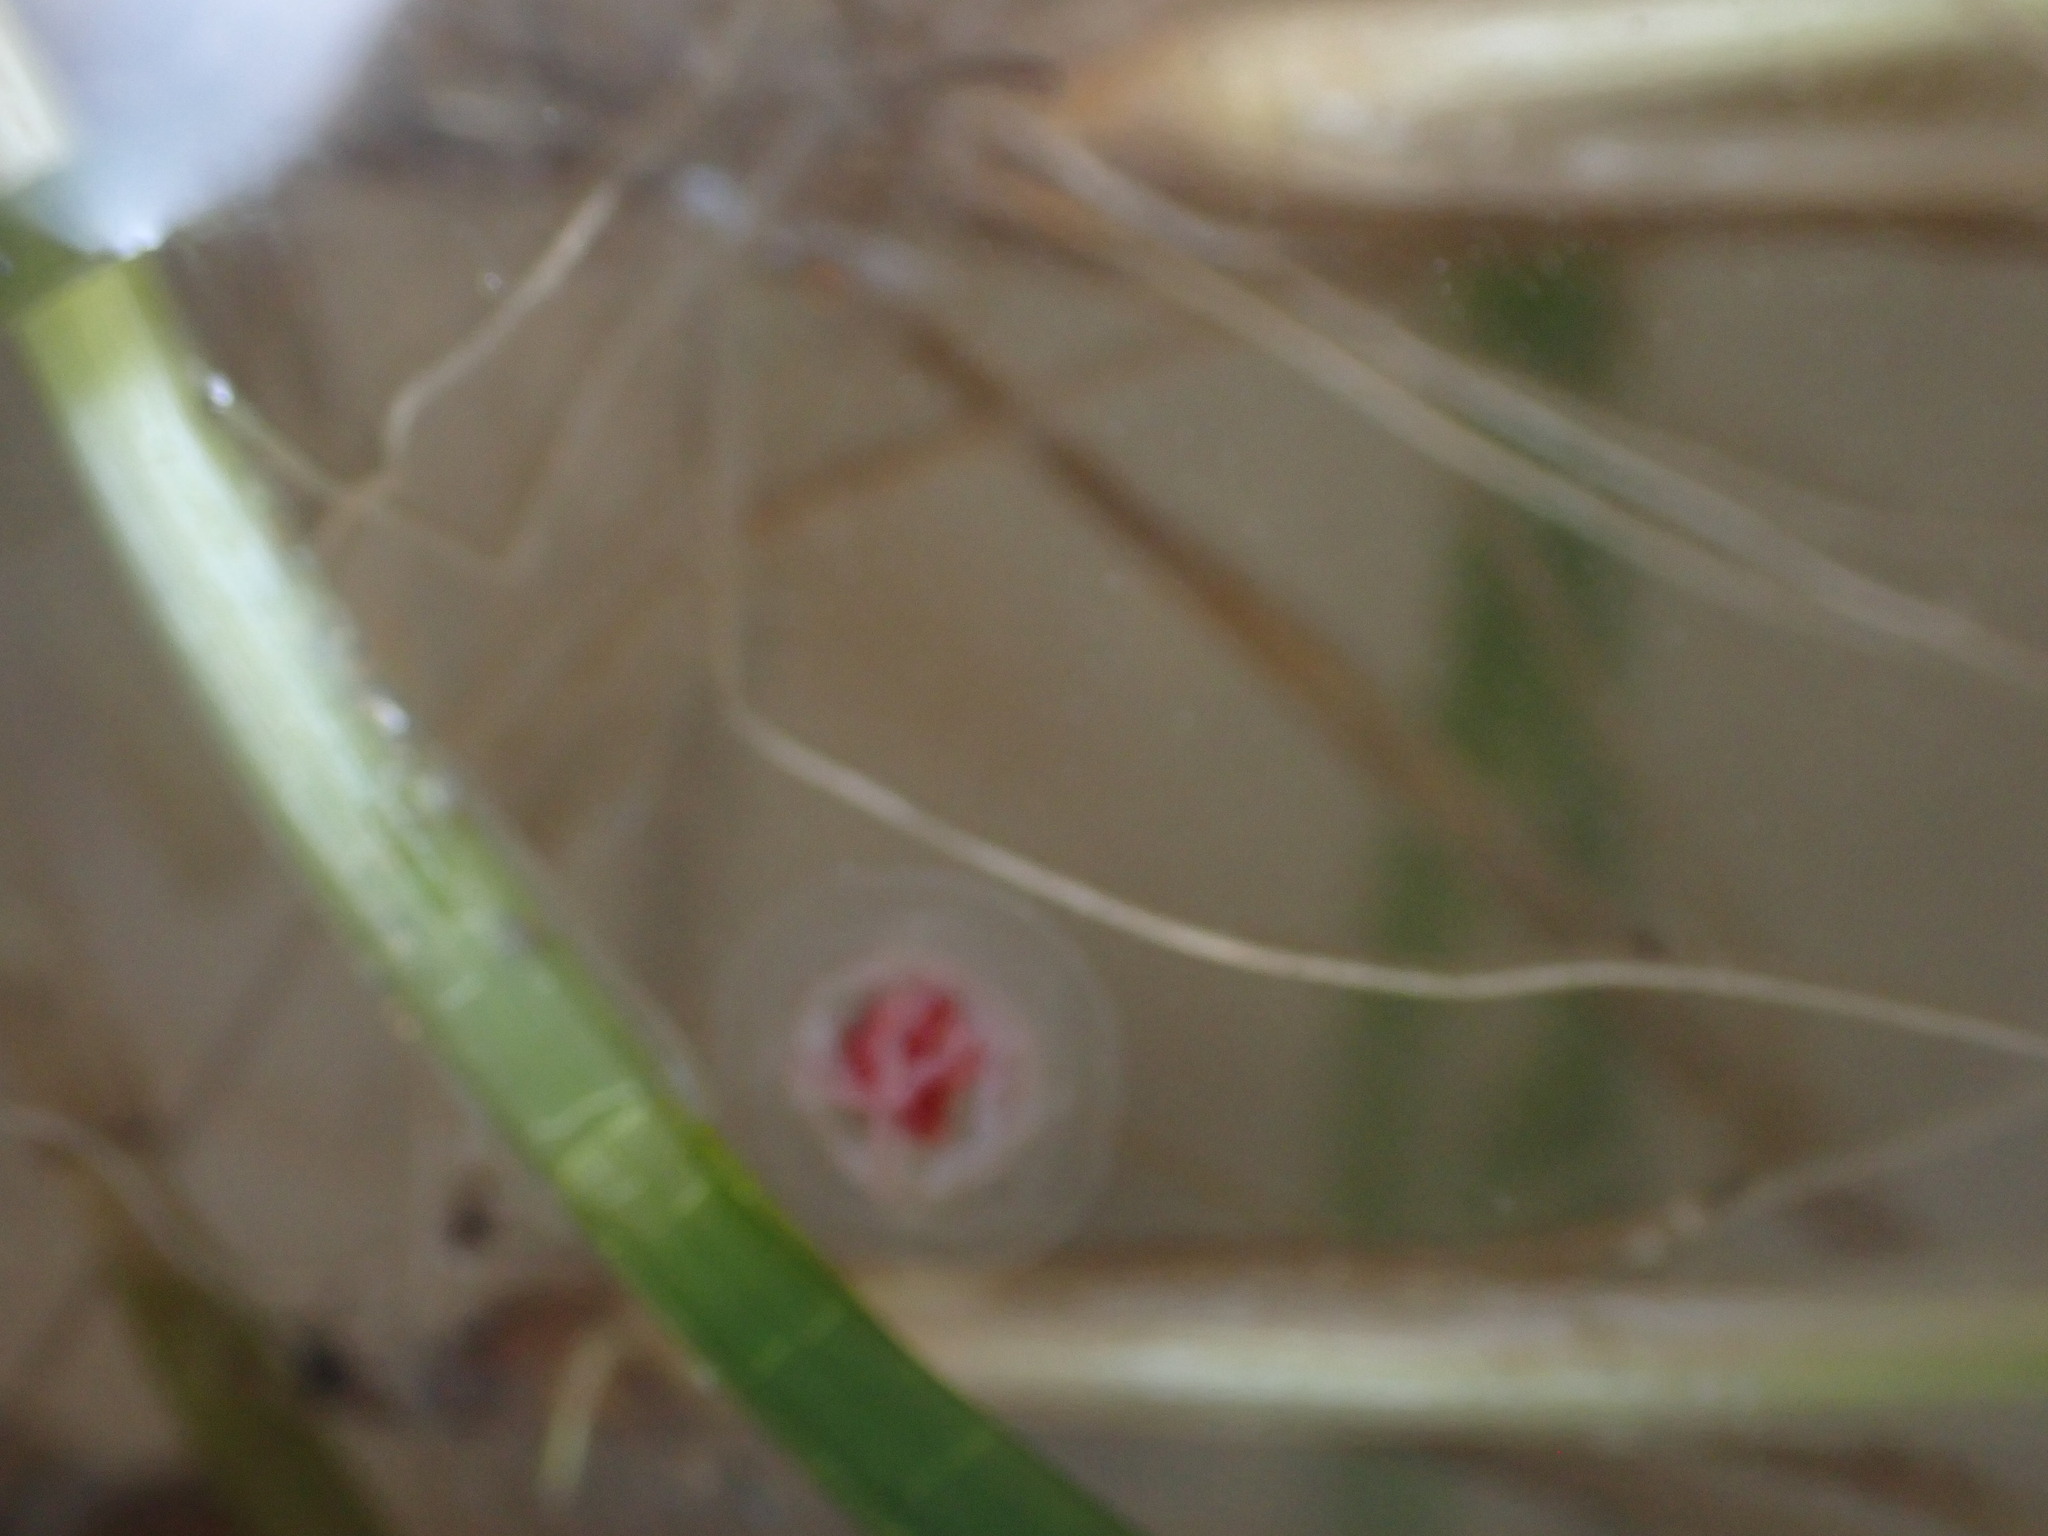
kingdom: Animalia
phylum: Cnidaria
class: Hydrozoa
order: Anthoathecata
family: Oceaniidae
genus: Turritopsis
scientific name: Turritopsis rubra
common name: Crimson jelly
